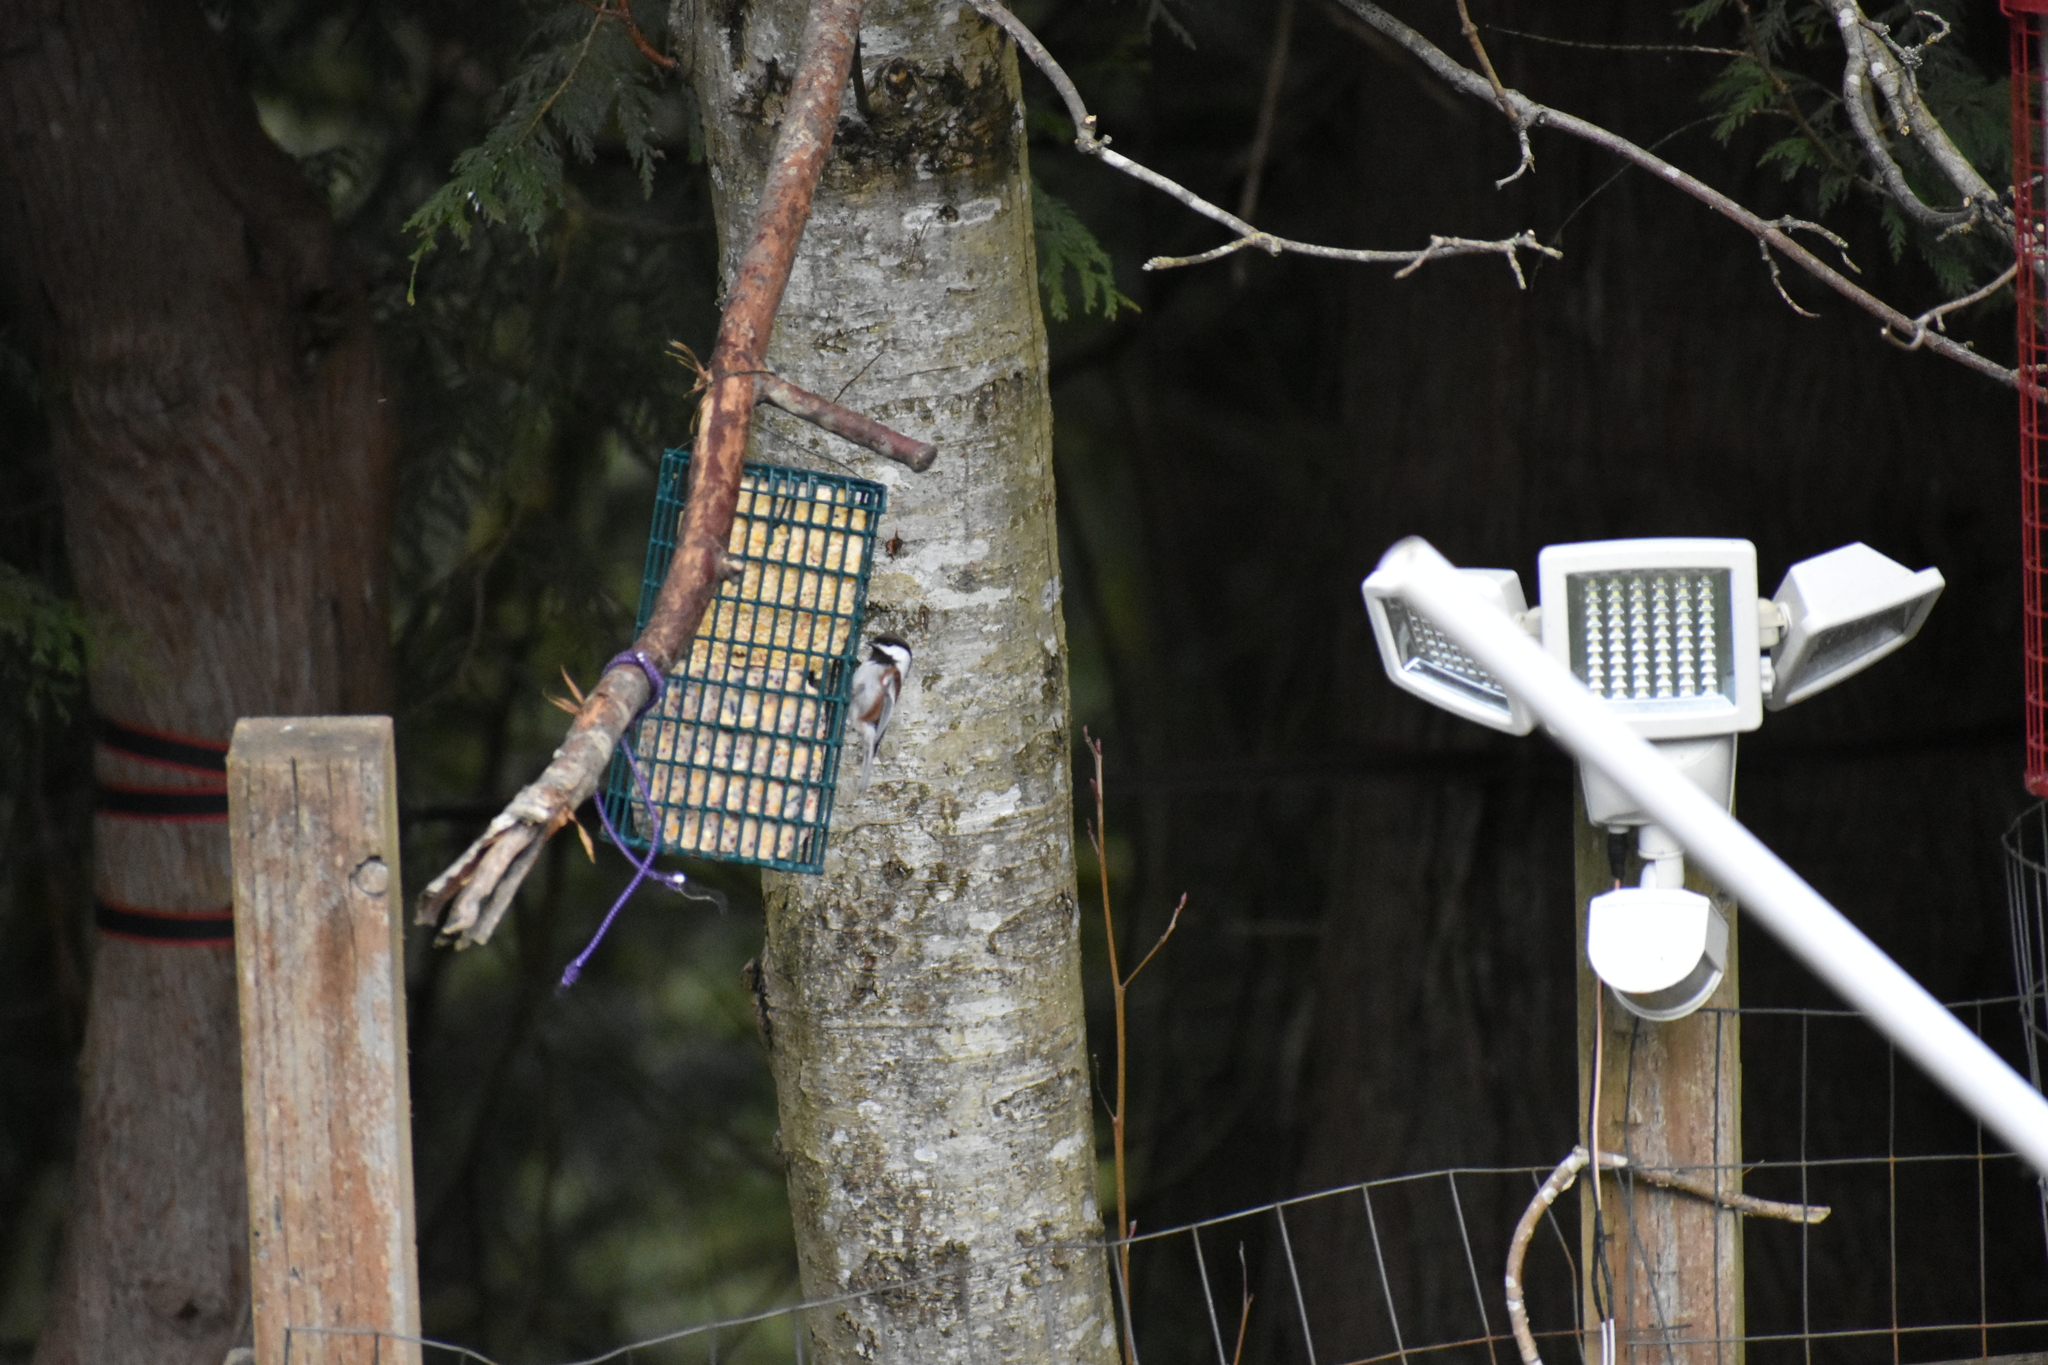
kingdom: Animalia
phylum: Chordata
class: Aves
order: Passeriformes
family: Paridae
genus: Poecile
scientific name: Poecile rufescens
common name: Chestnut-backed chickadee
